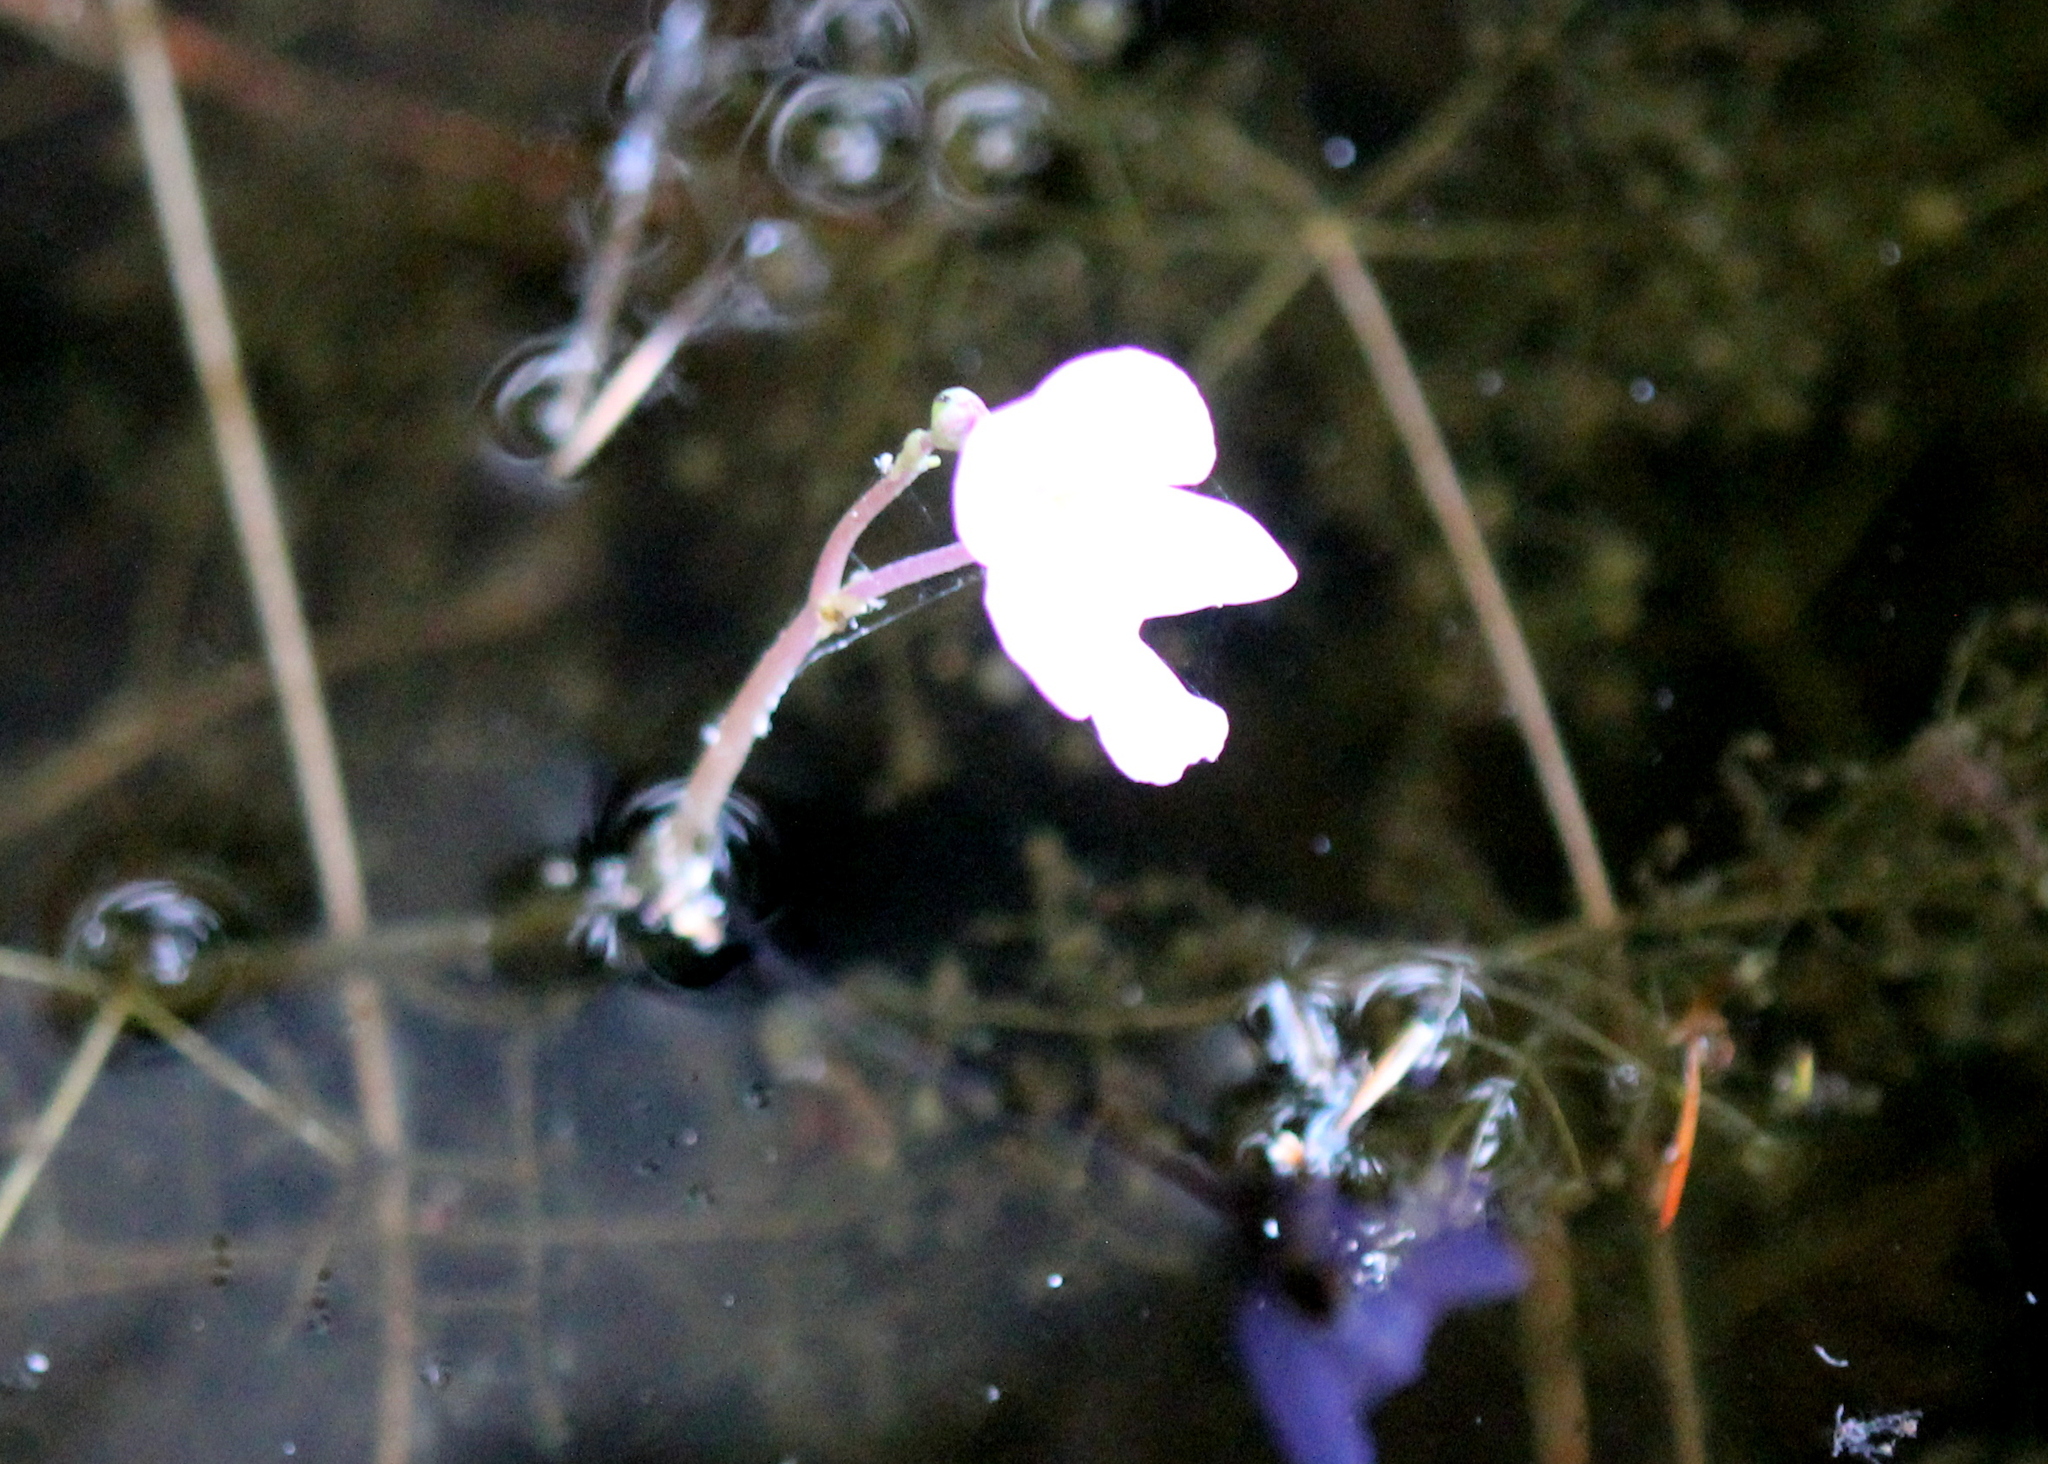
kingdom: Plantae
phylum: Tracheophyta
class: Magnoliopsida
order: Lamiales
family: Lentibulariaceae
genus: Utricularia
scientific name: Utricularia purpurea
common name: Eastern purple bladderwort
